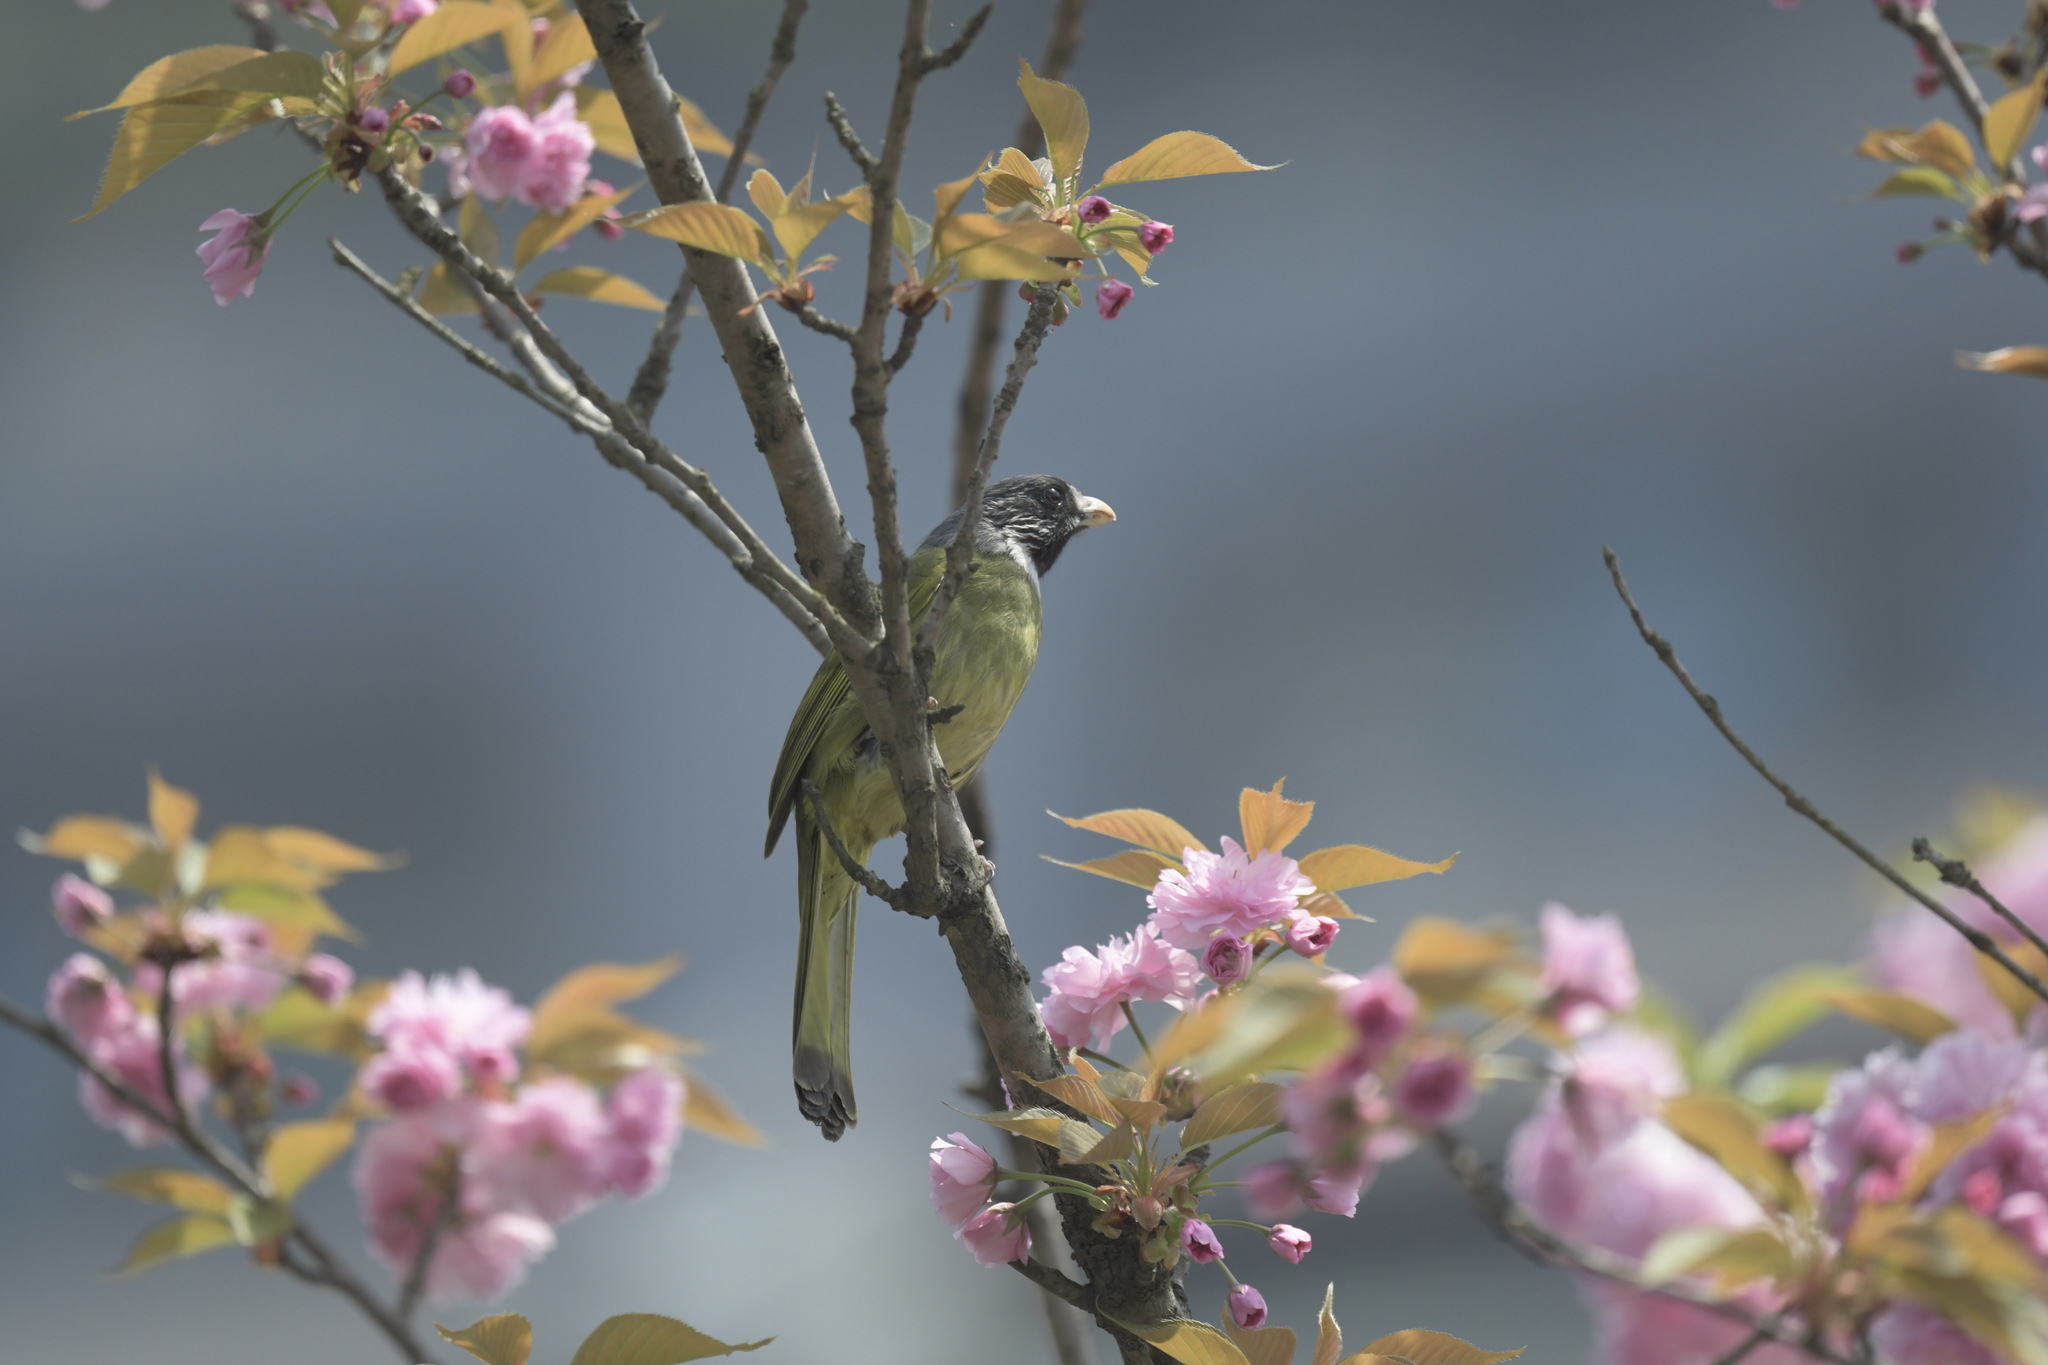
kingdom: Animalia
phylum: Chordata
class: Aves
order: Passeriformes
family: Pycnonotidae
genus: Spizixos
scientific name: Spizixos semitorques
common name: Collared finchbill
